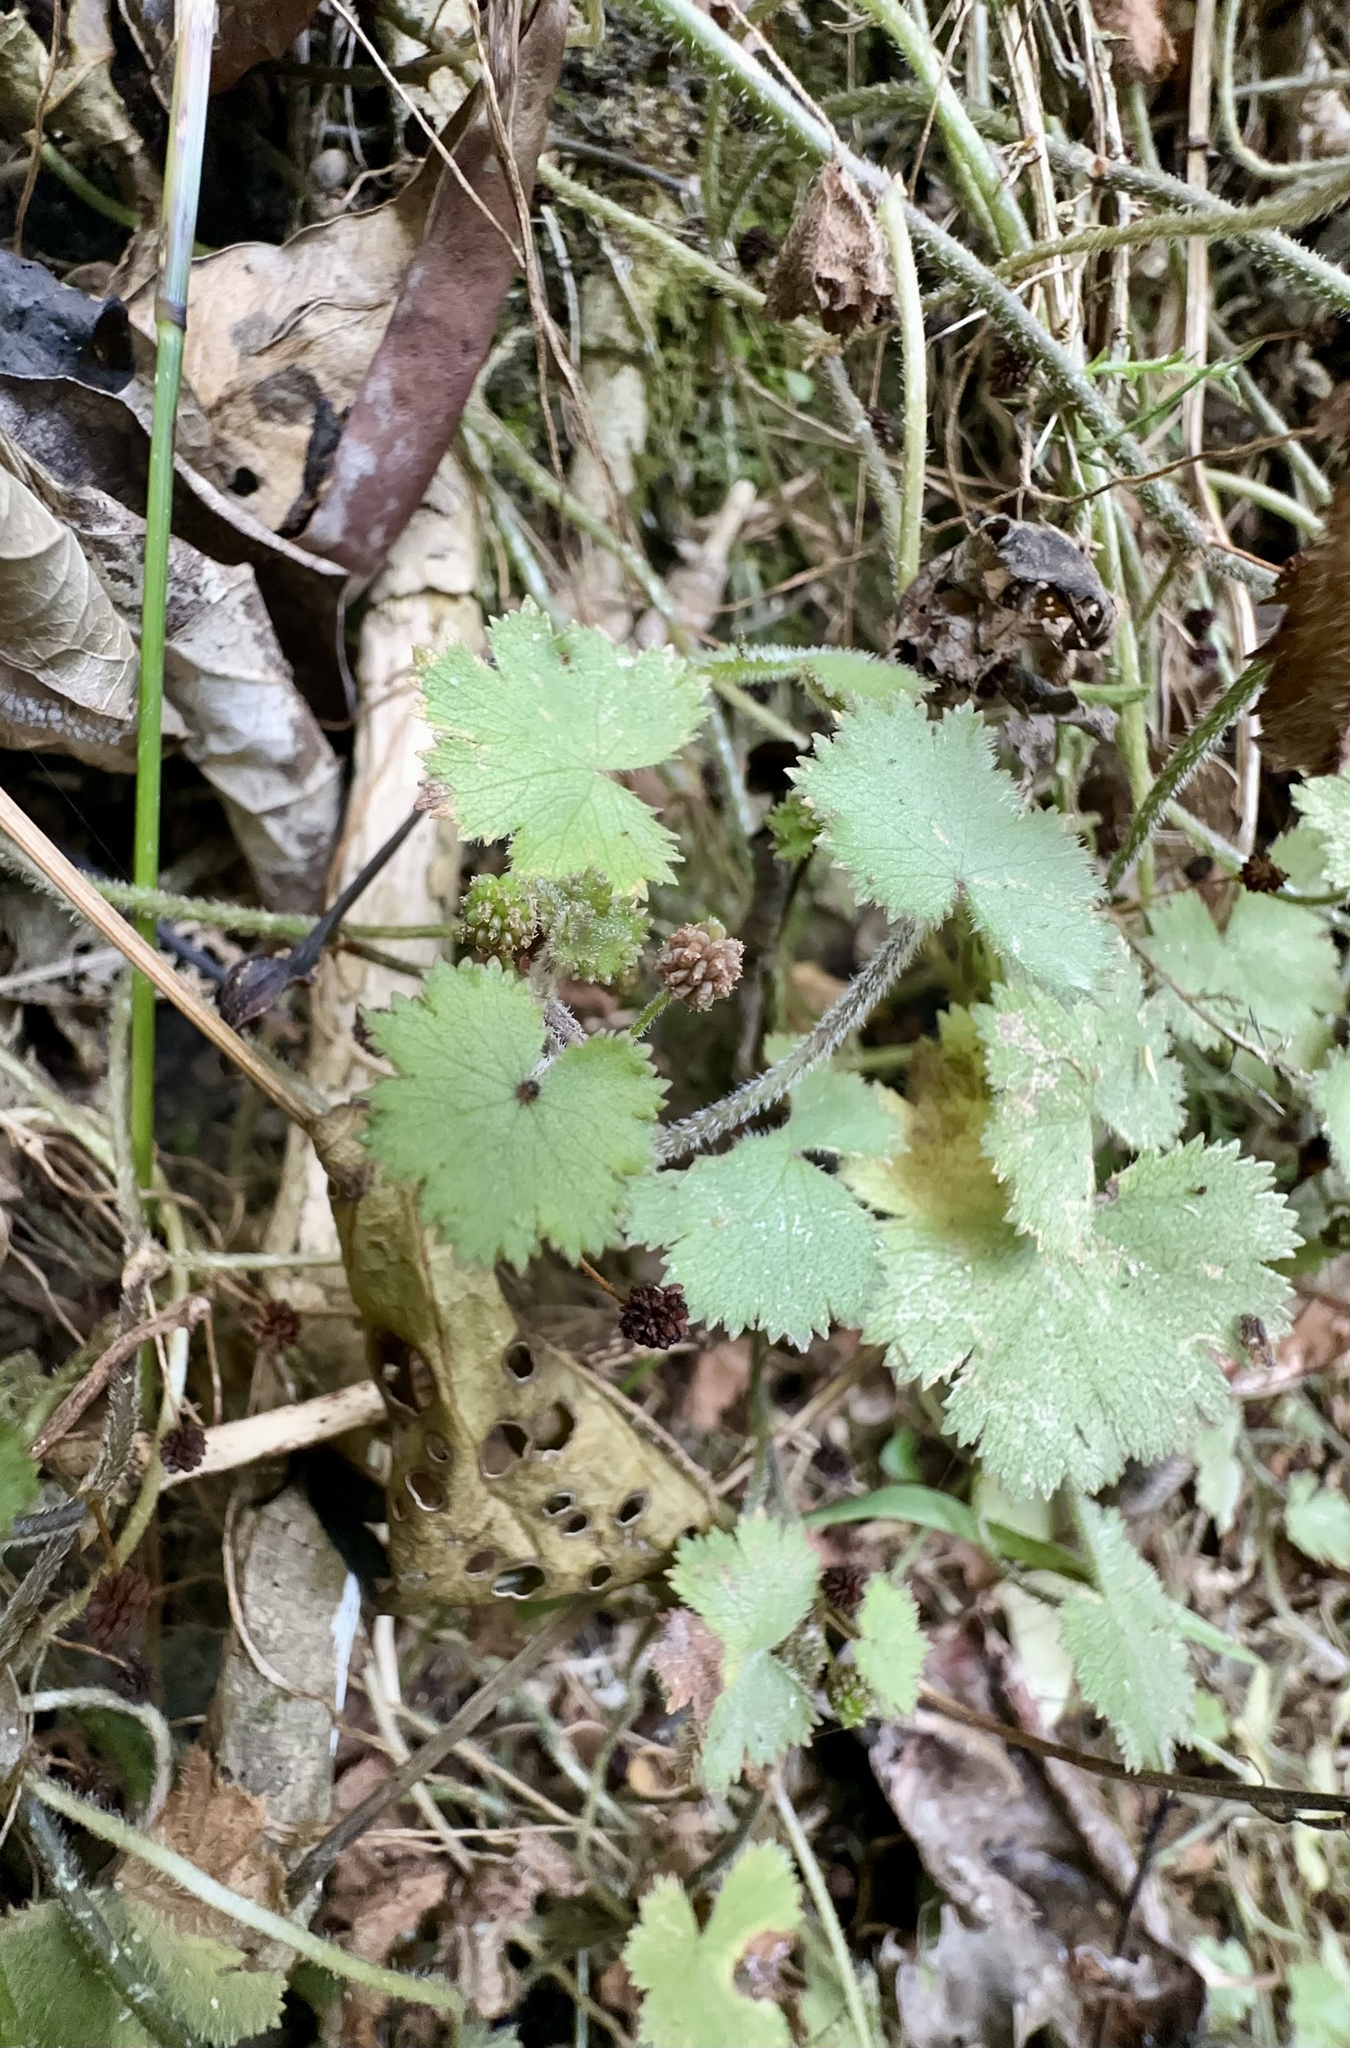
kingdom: Plantae
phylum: Tracheophyta
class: Magnoliopsida
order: Apiales
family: Araliaceae
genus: Hydrocotyle
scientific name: Hydrocotyle moschata
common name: Hairy pennywort
